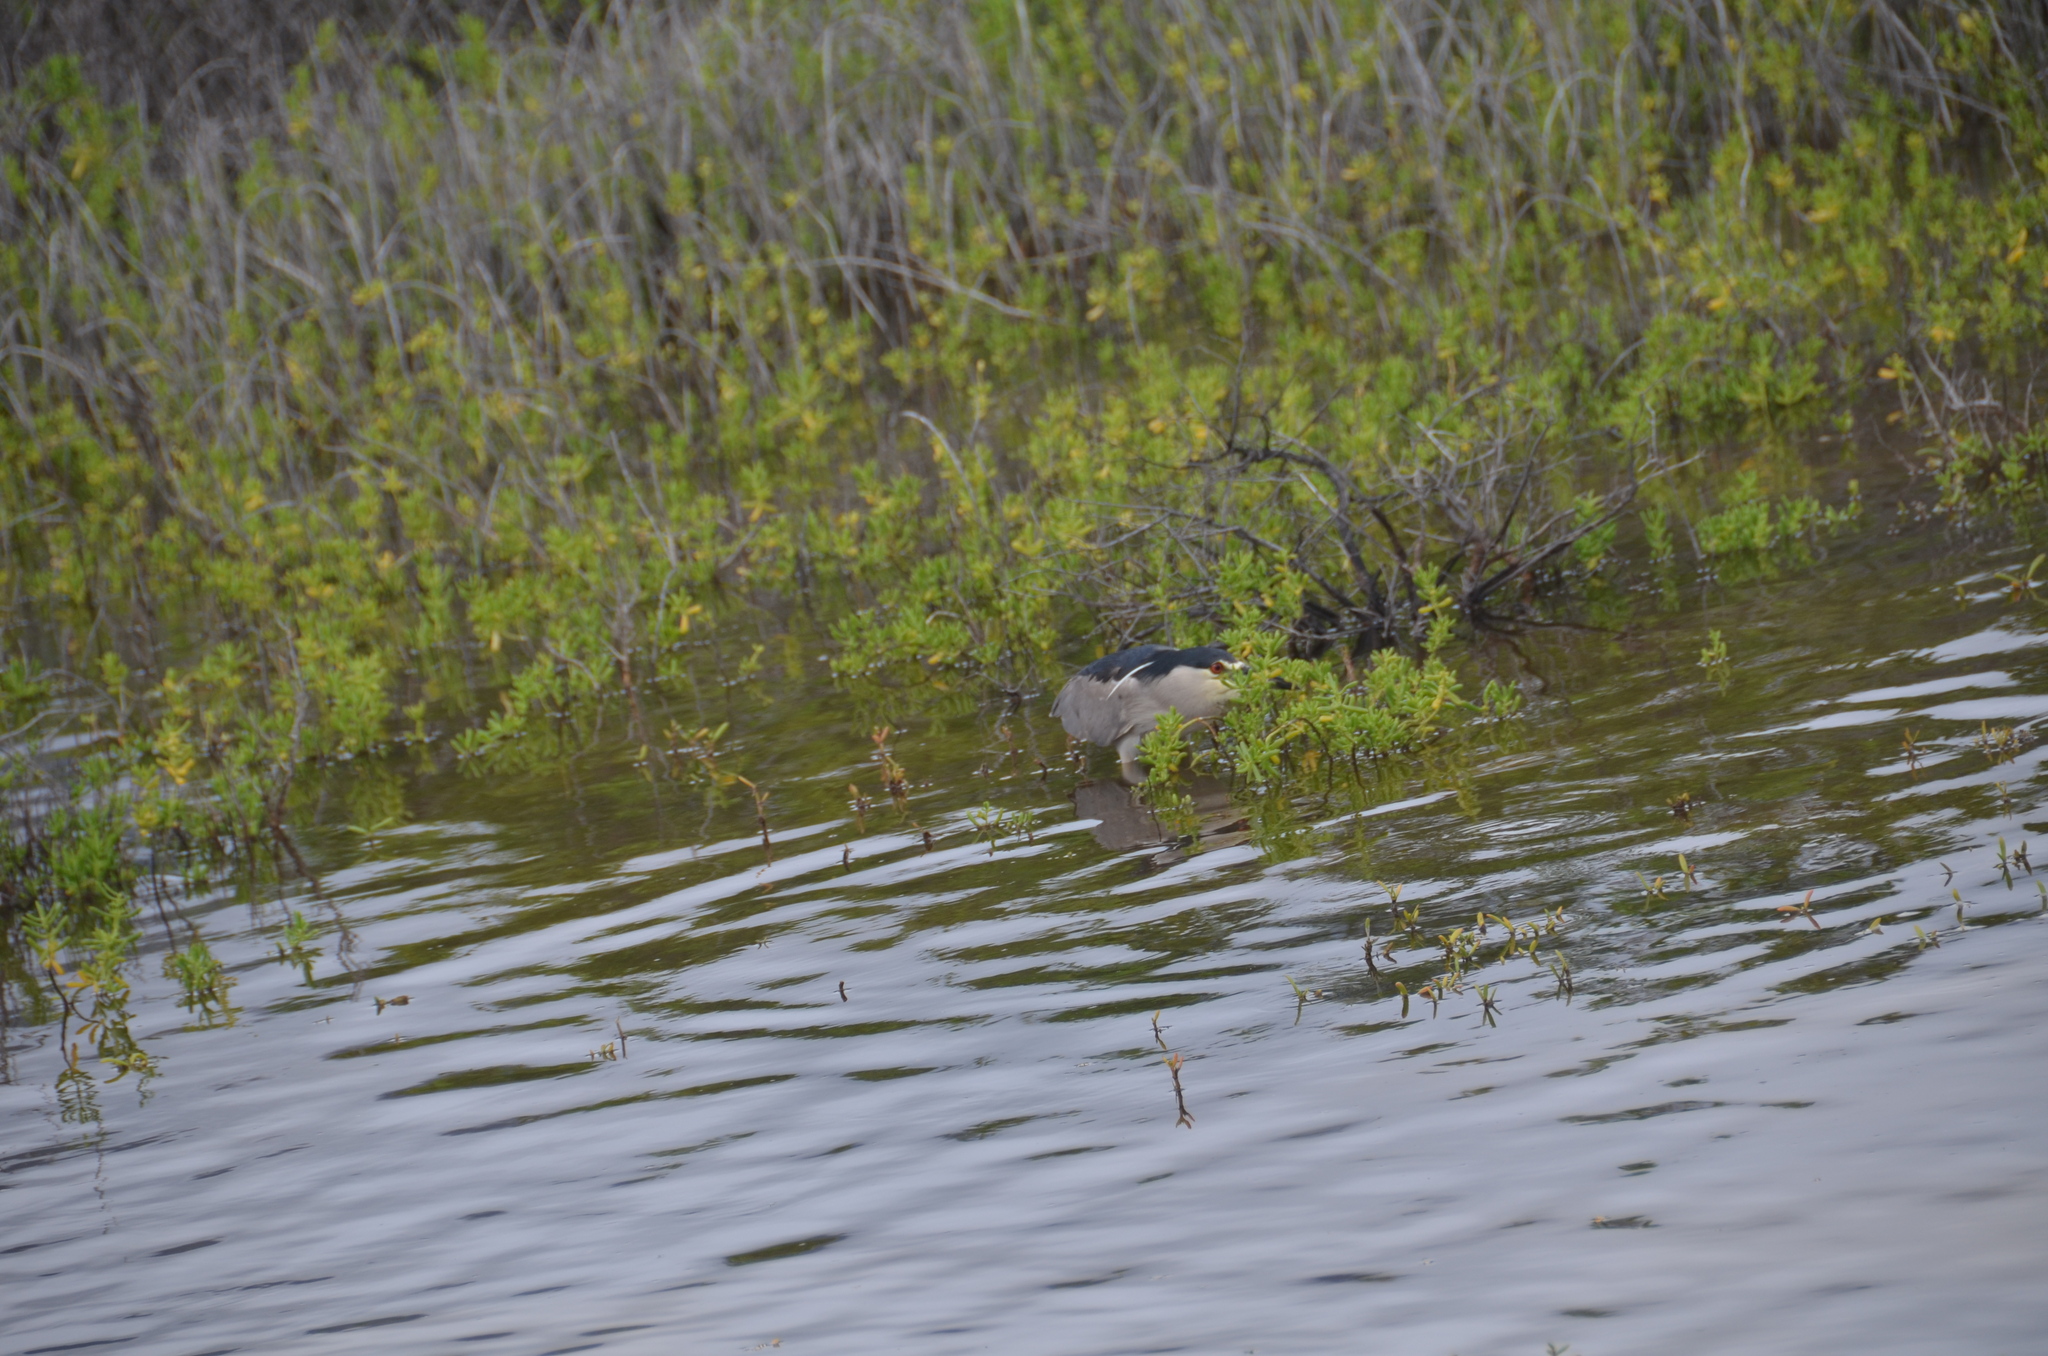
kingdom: Animalia
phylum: Chordata
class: Aves
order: Pelecaniformes
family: Ardeidae
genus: Nycticorax
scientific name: Nycticorax nycticorax
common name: Black-crowned night heron
